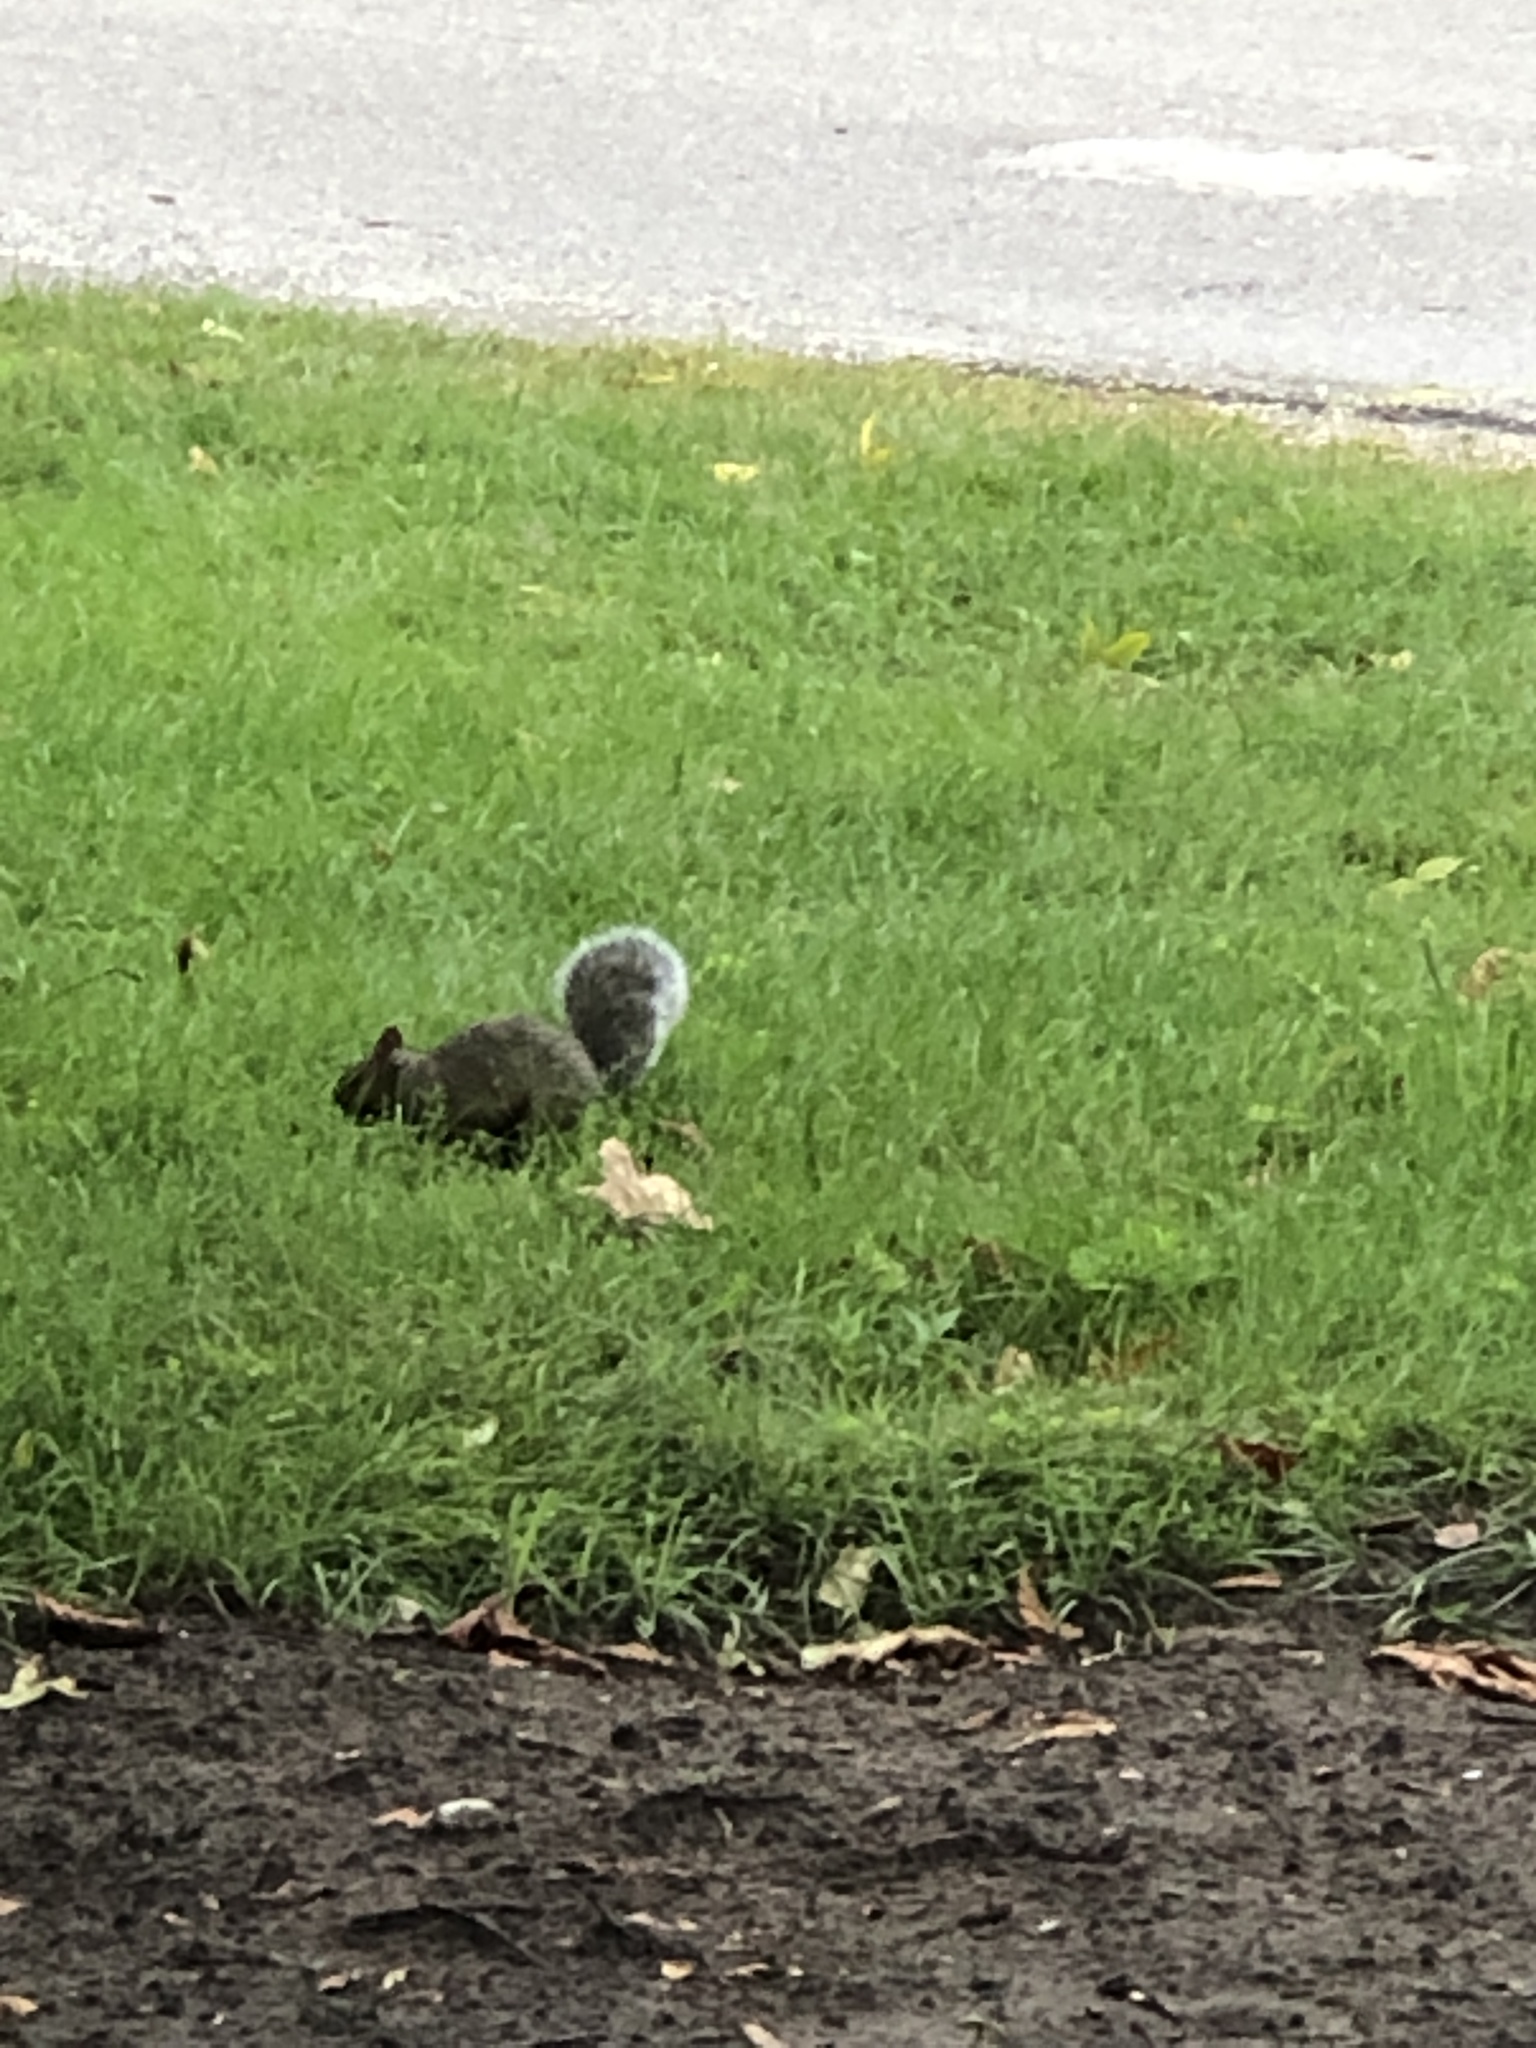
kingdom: Animalia
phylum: Chordata
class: Mammalia
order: Rodentia
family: Sciuridae
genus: Sciurus
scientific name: Sciurus carolinensis
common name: Eastern gray squirrel
